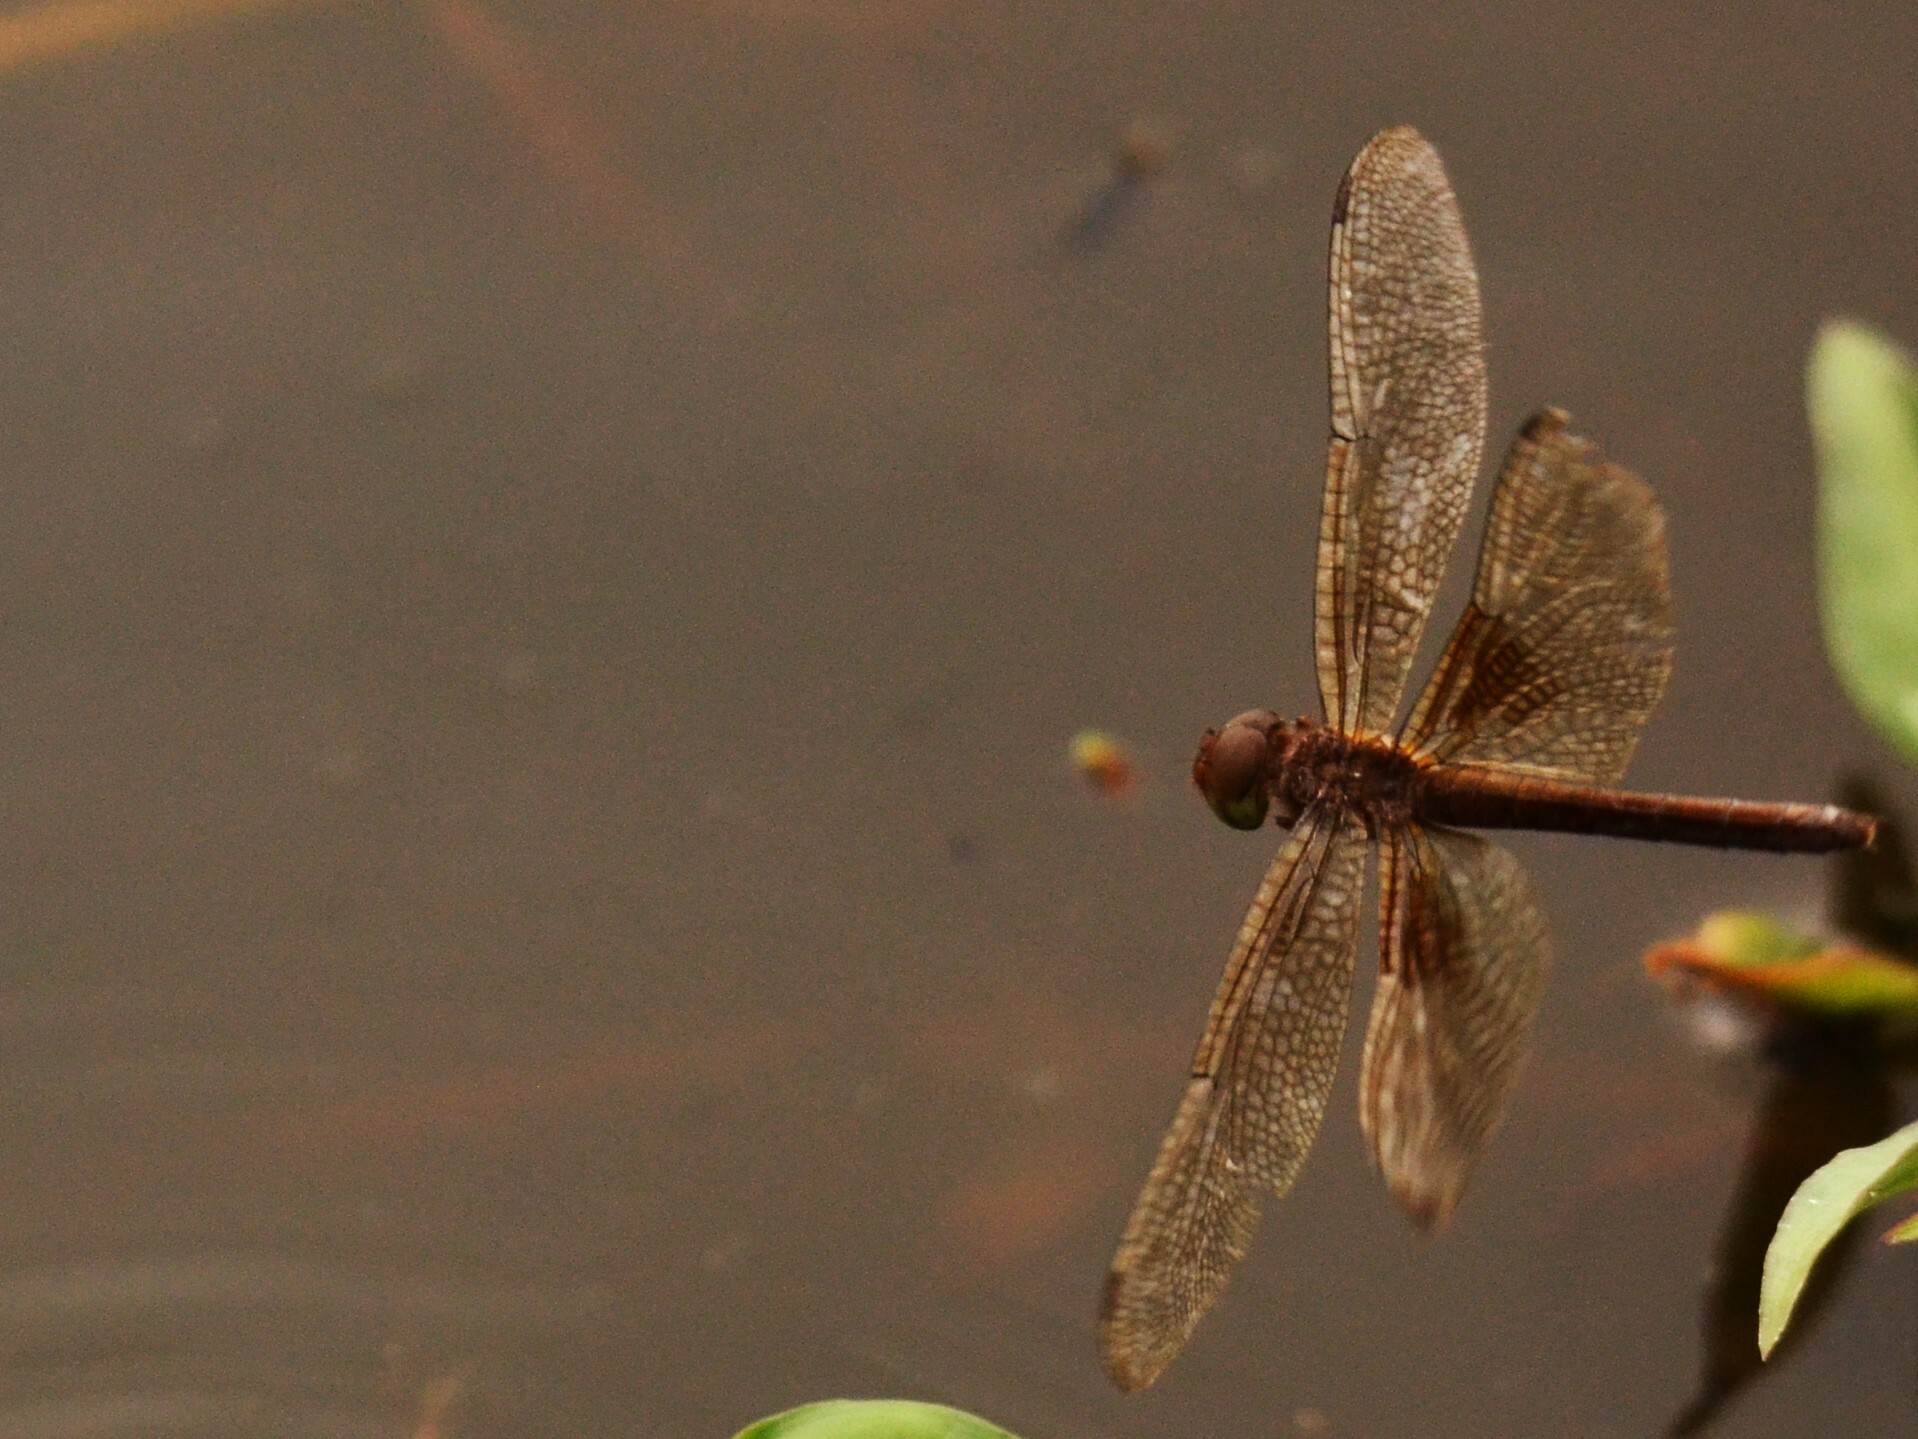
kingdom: Animalia
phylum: Arthropoda
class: Insecta
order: Odonata
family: Libellulidae
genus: Tholymis
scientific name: Tholymis tillarga
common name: Coral-tailed cloud wing
